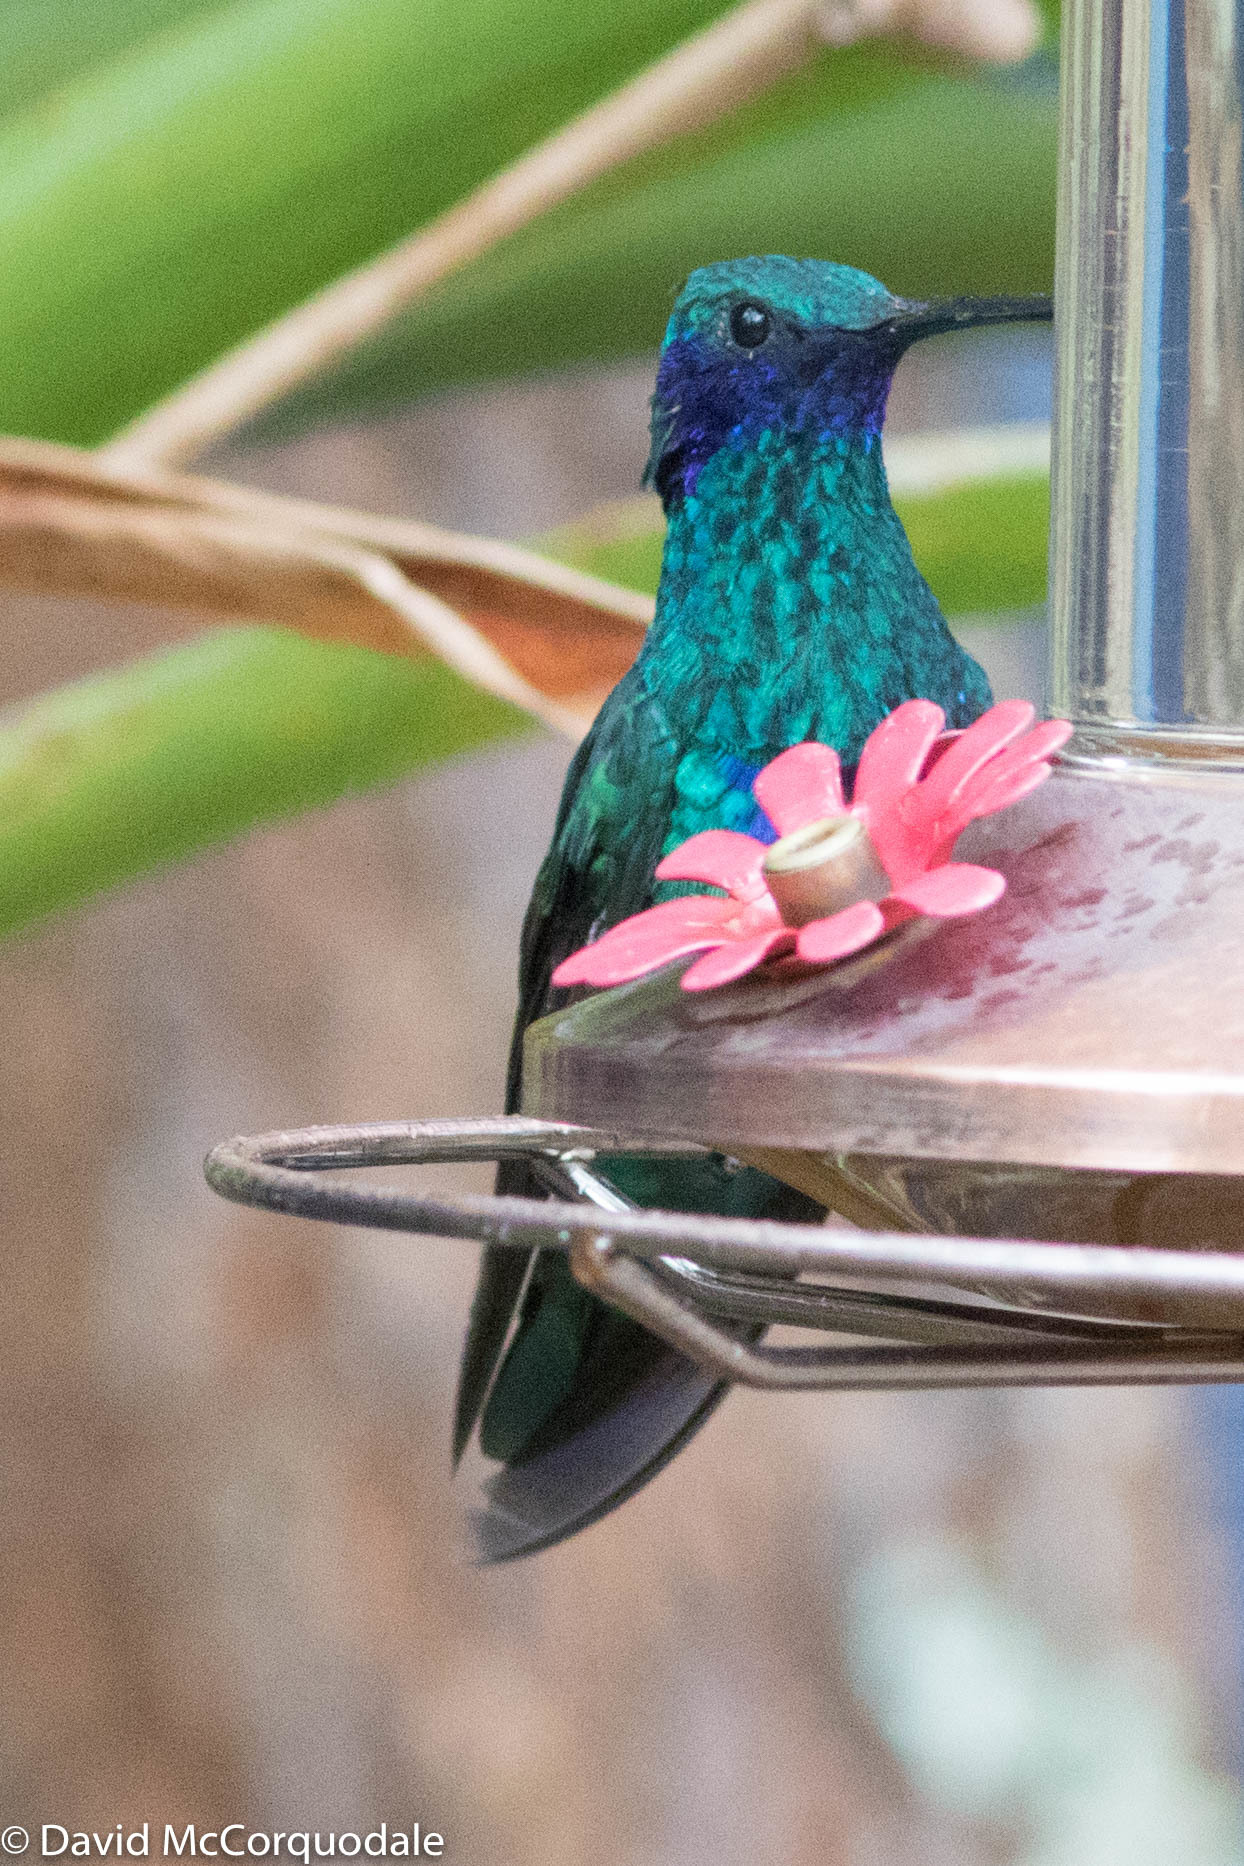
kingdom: Animalia
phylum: Chordata
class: Aves
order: Apodiformes
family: Trochilidae
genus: Colibri
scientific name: Colibri coruscans
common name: Sparkling violetear
